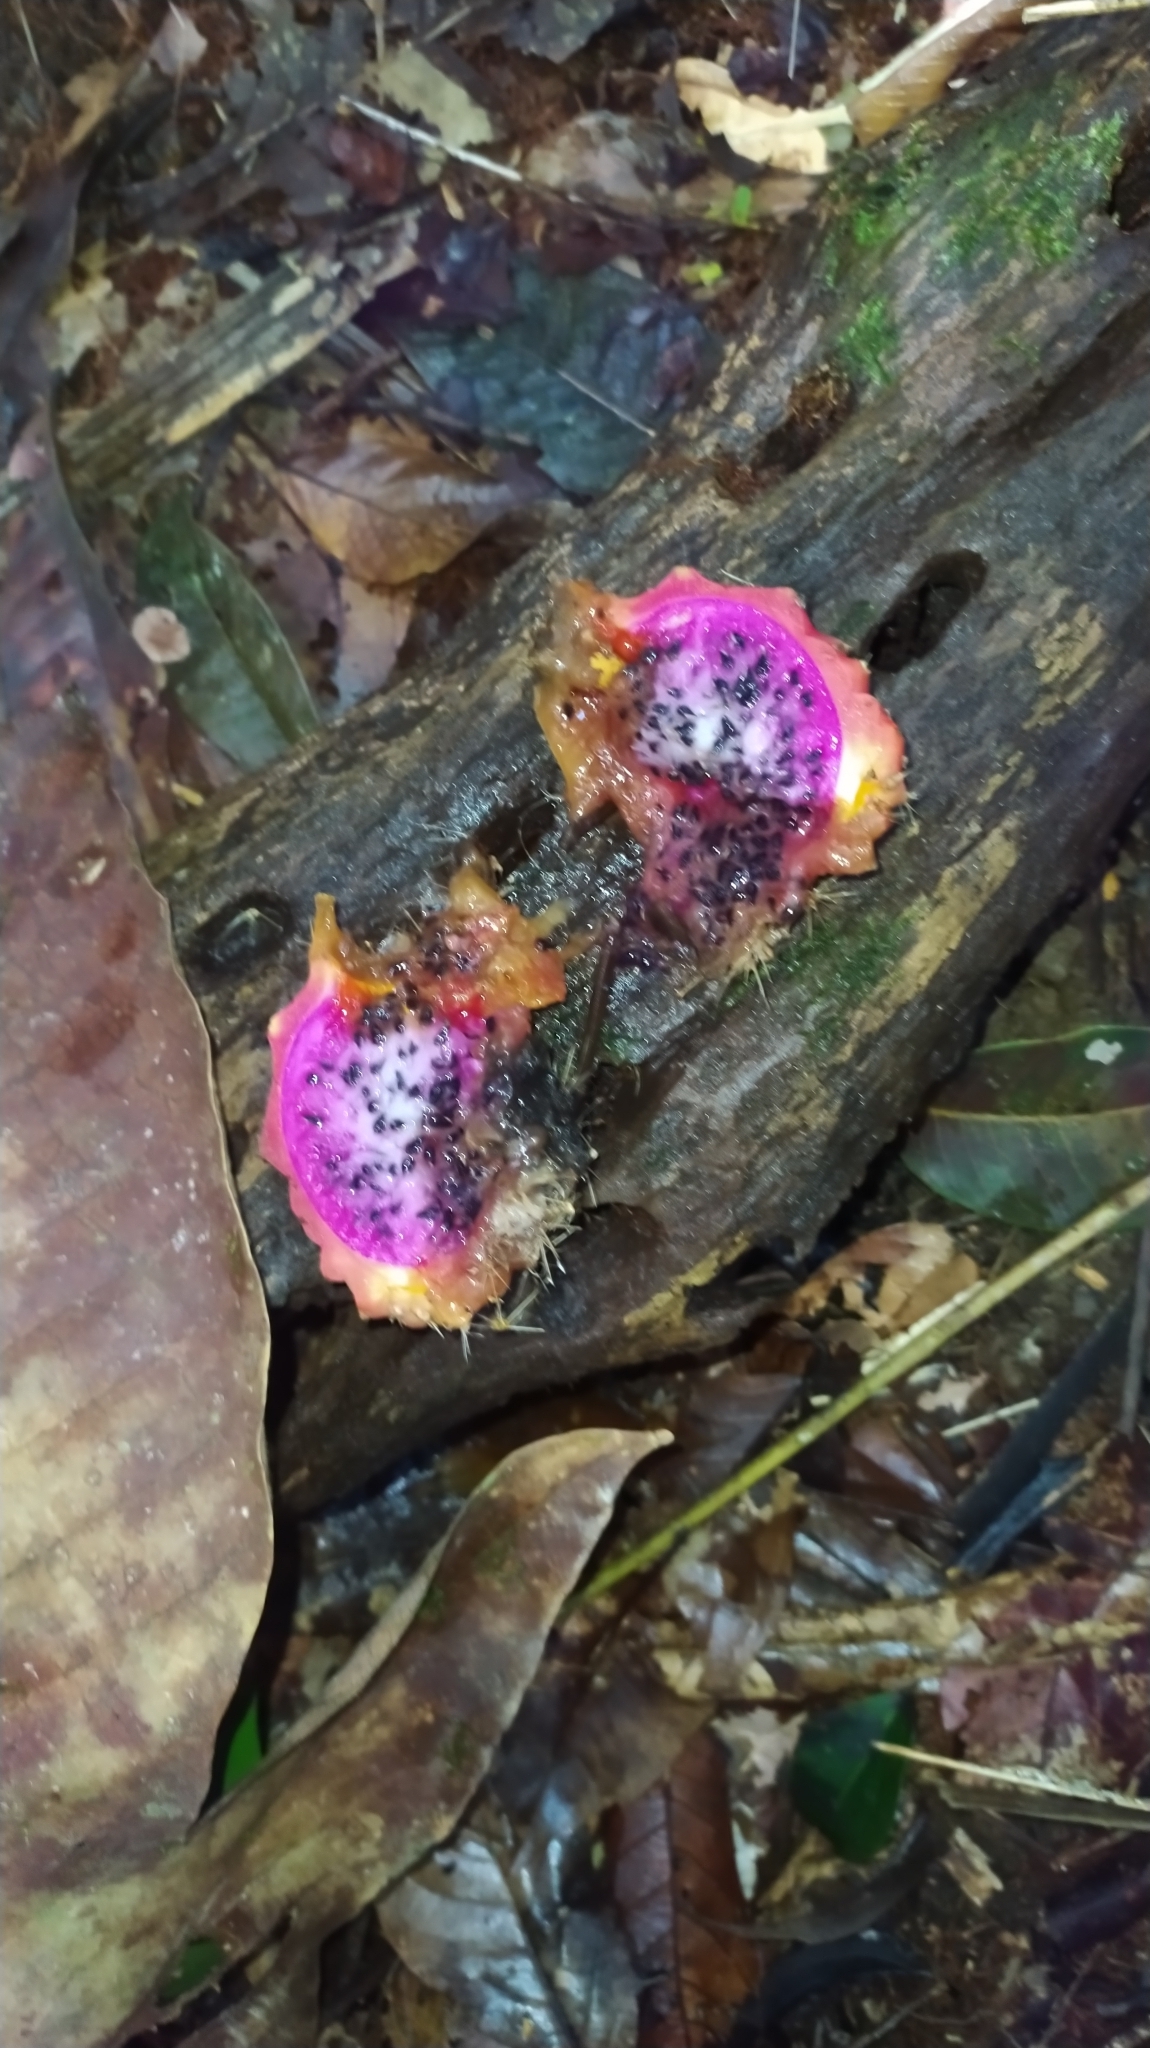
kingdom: Plantae
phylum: Tracheophyta
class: Magnoliopsida
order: Caryophyllales
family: Cactaceae
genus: Selenicereus
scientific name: Selenicereus extensus
